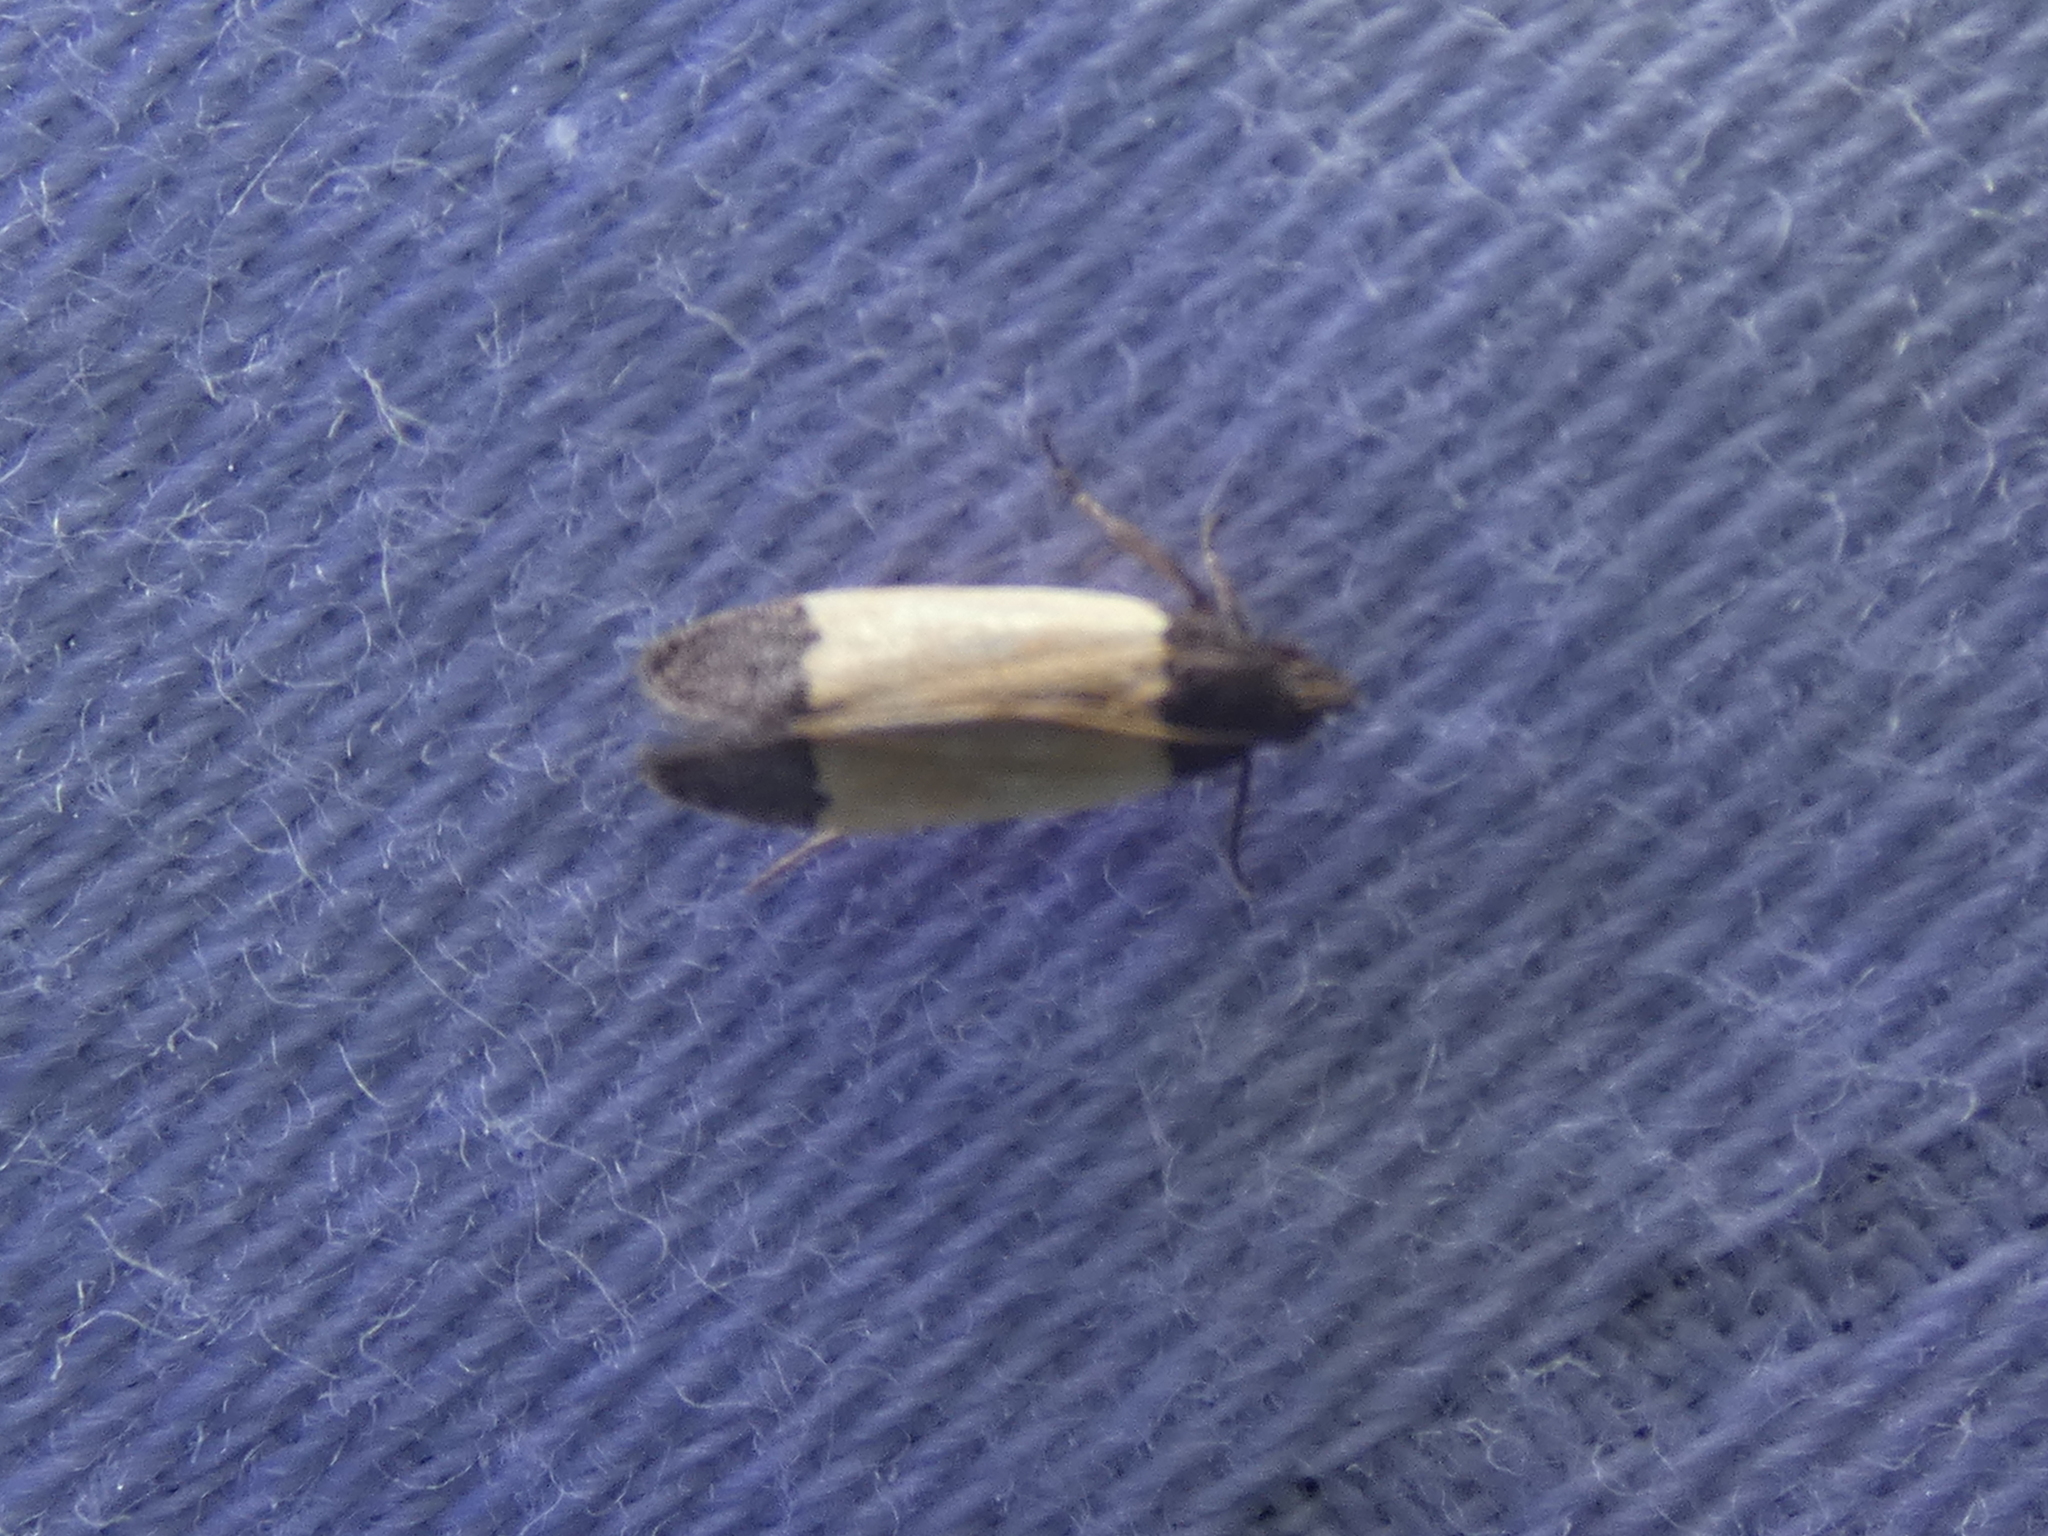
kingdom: Animalia
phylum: Arthropoda
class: Insecta
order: Lepidoptera
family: Gelechiidae
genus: Anacampsis
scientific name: Anacampsis coverdalella
